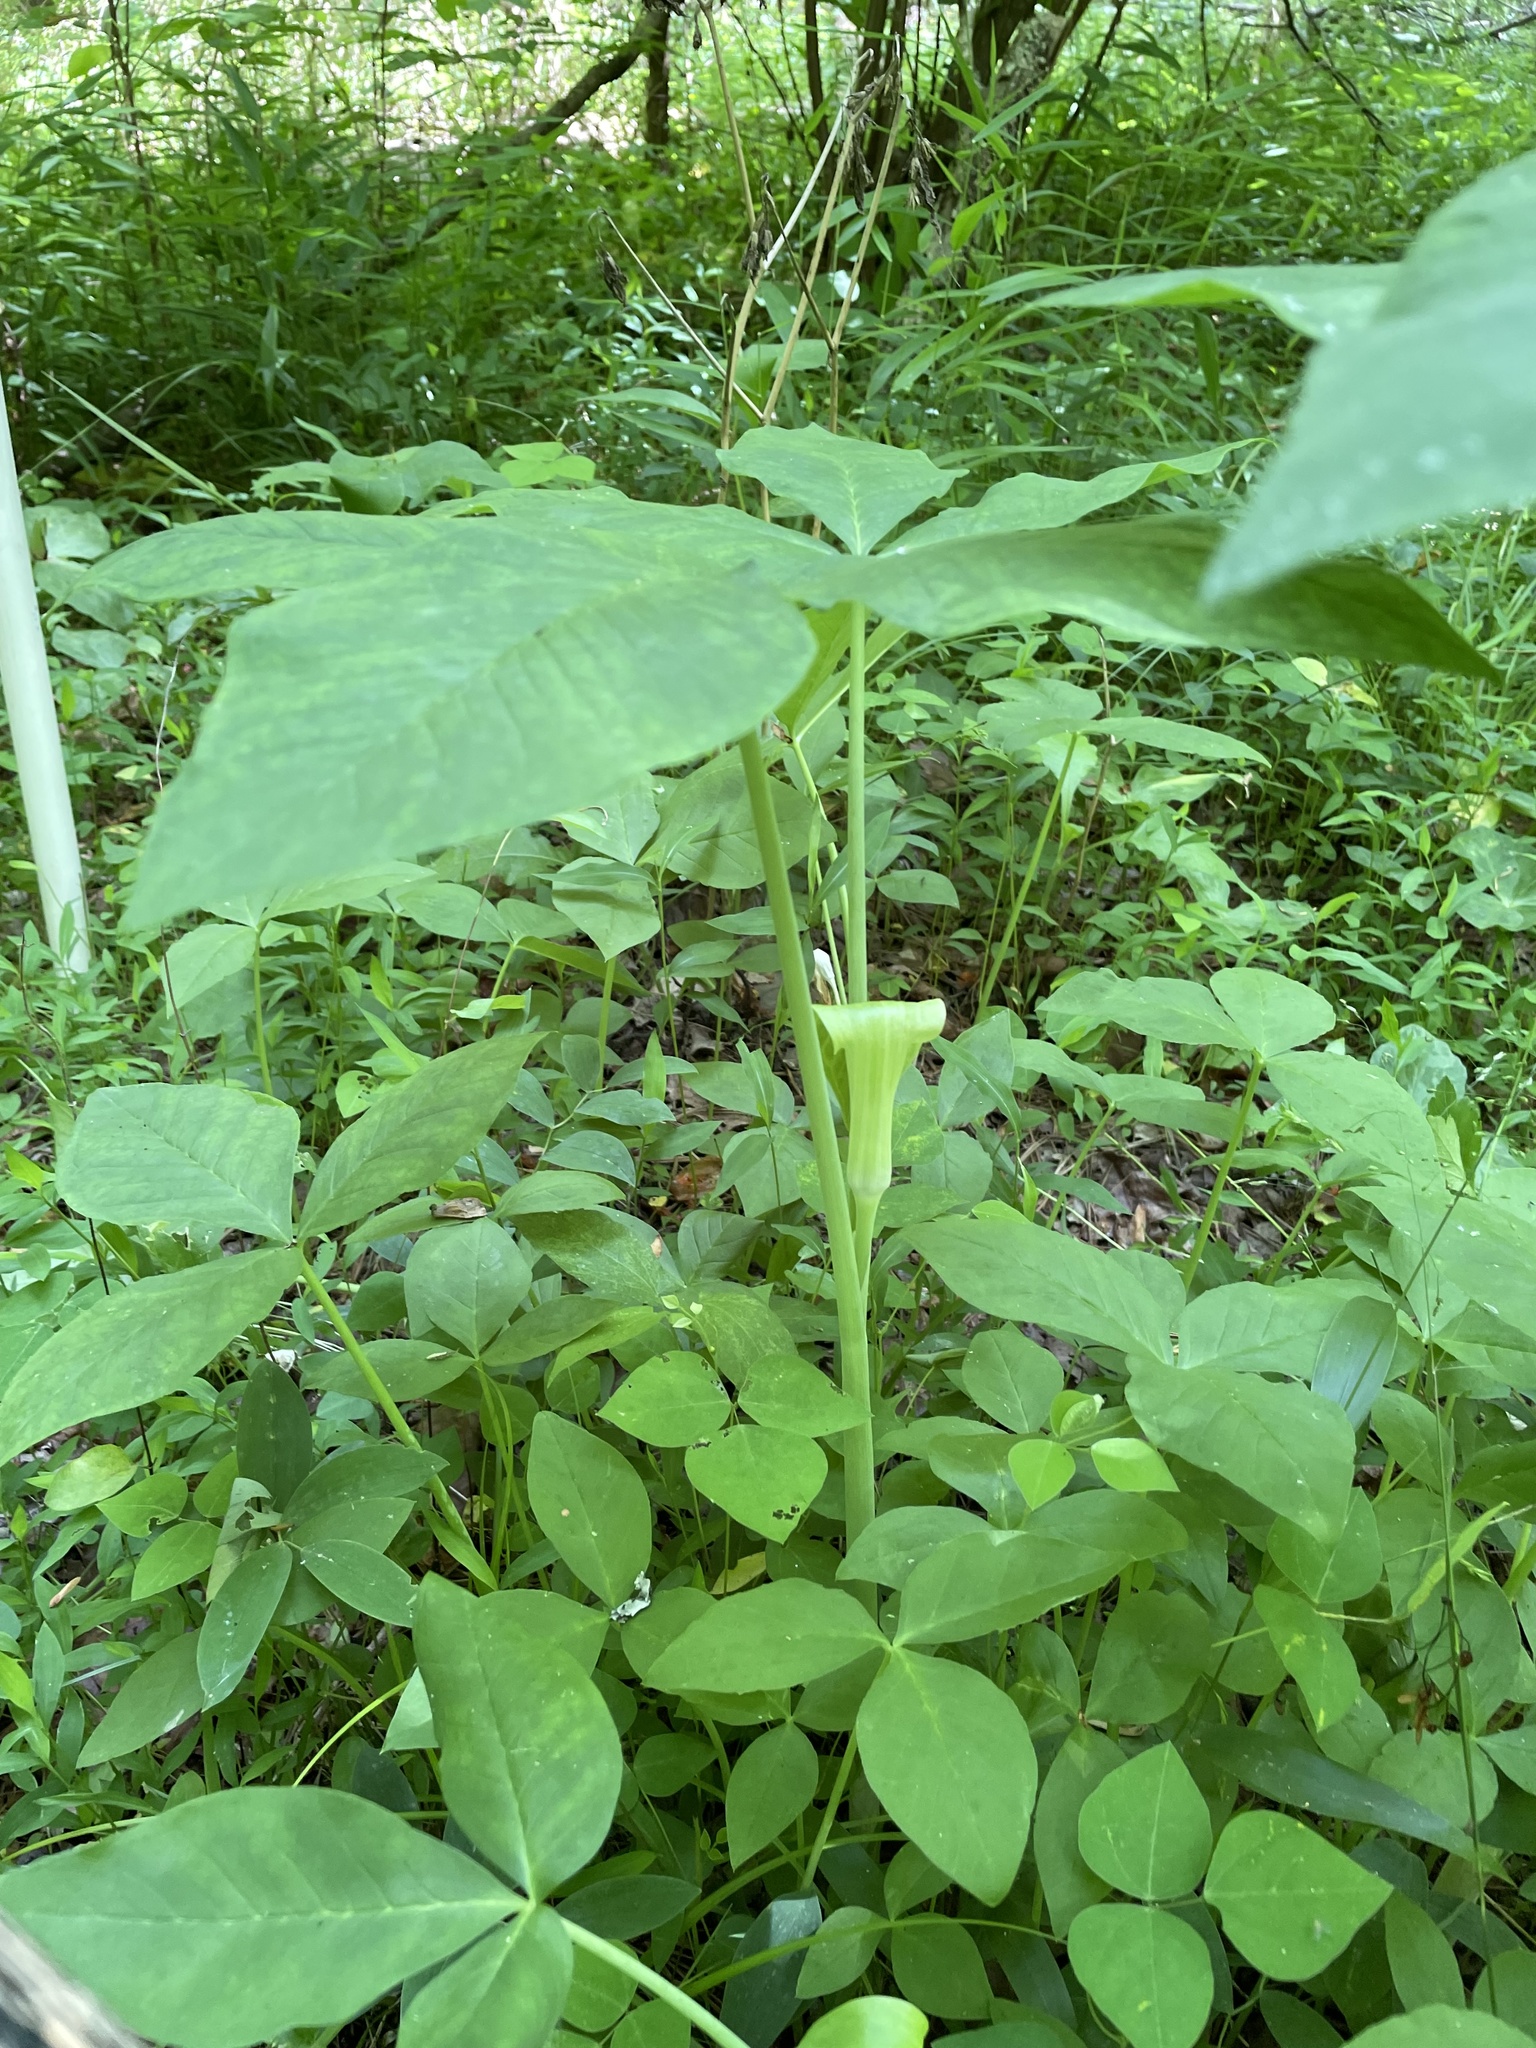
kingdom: Plantae
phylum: Tracheophyta
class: Liliopsida
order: Alismatales
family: Araceae
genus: Arisaema
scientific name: Arisaema quinatum
